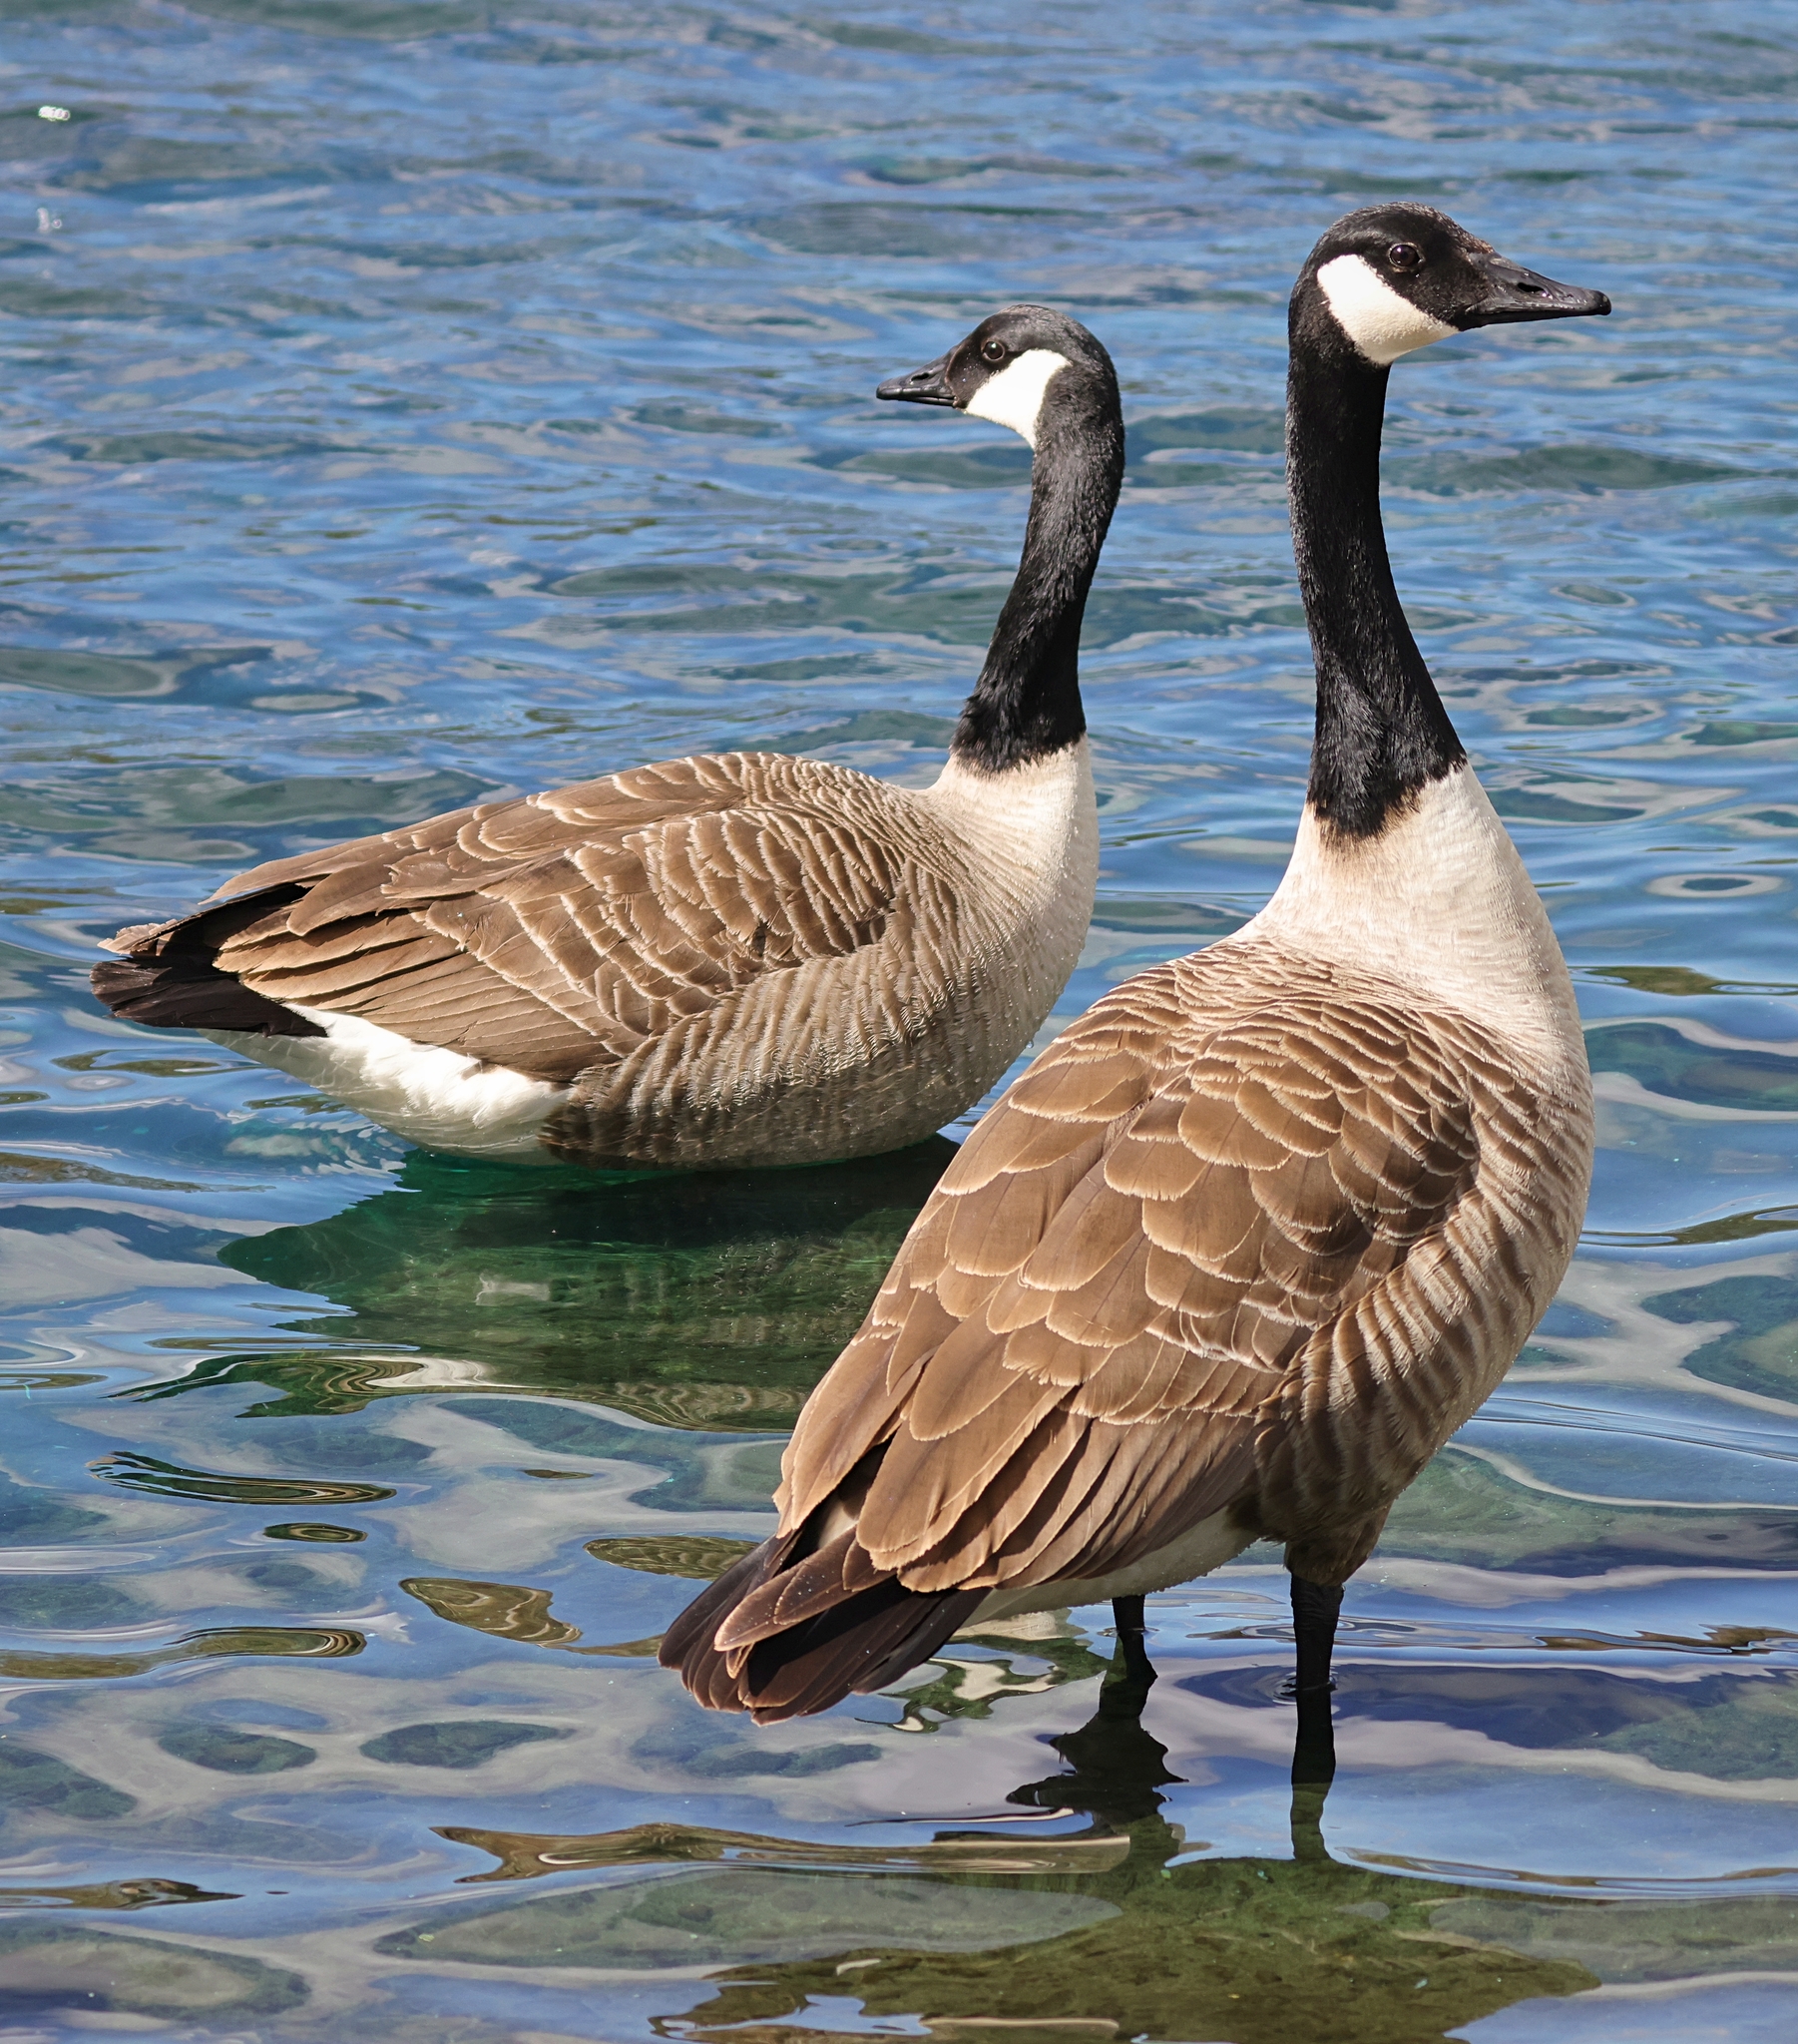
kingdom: Animalia
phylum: Chordata
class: Aves
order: Anseriformes
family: Anatidae
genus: Branta
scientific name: Branta canadensis
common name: Canada goose
